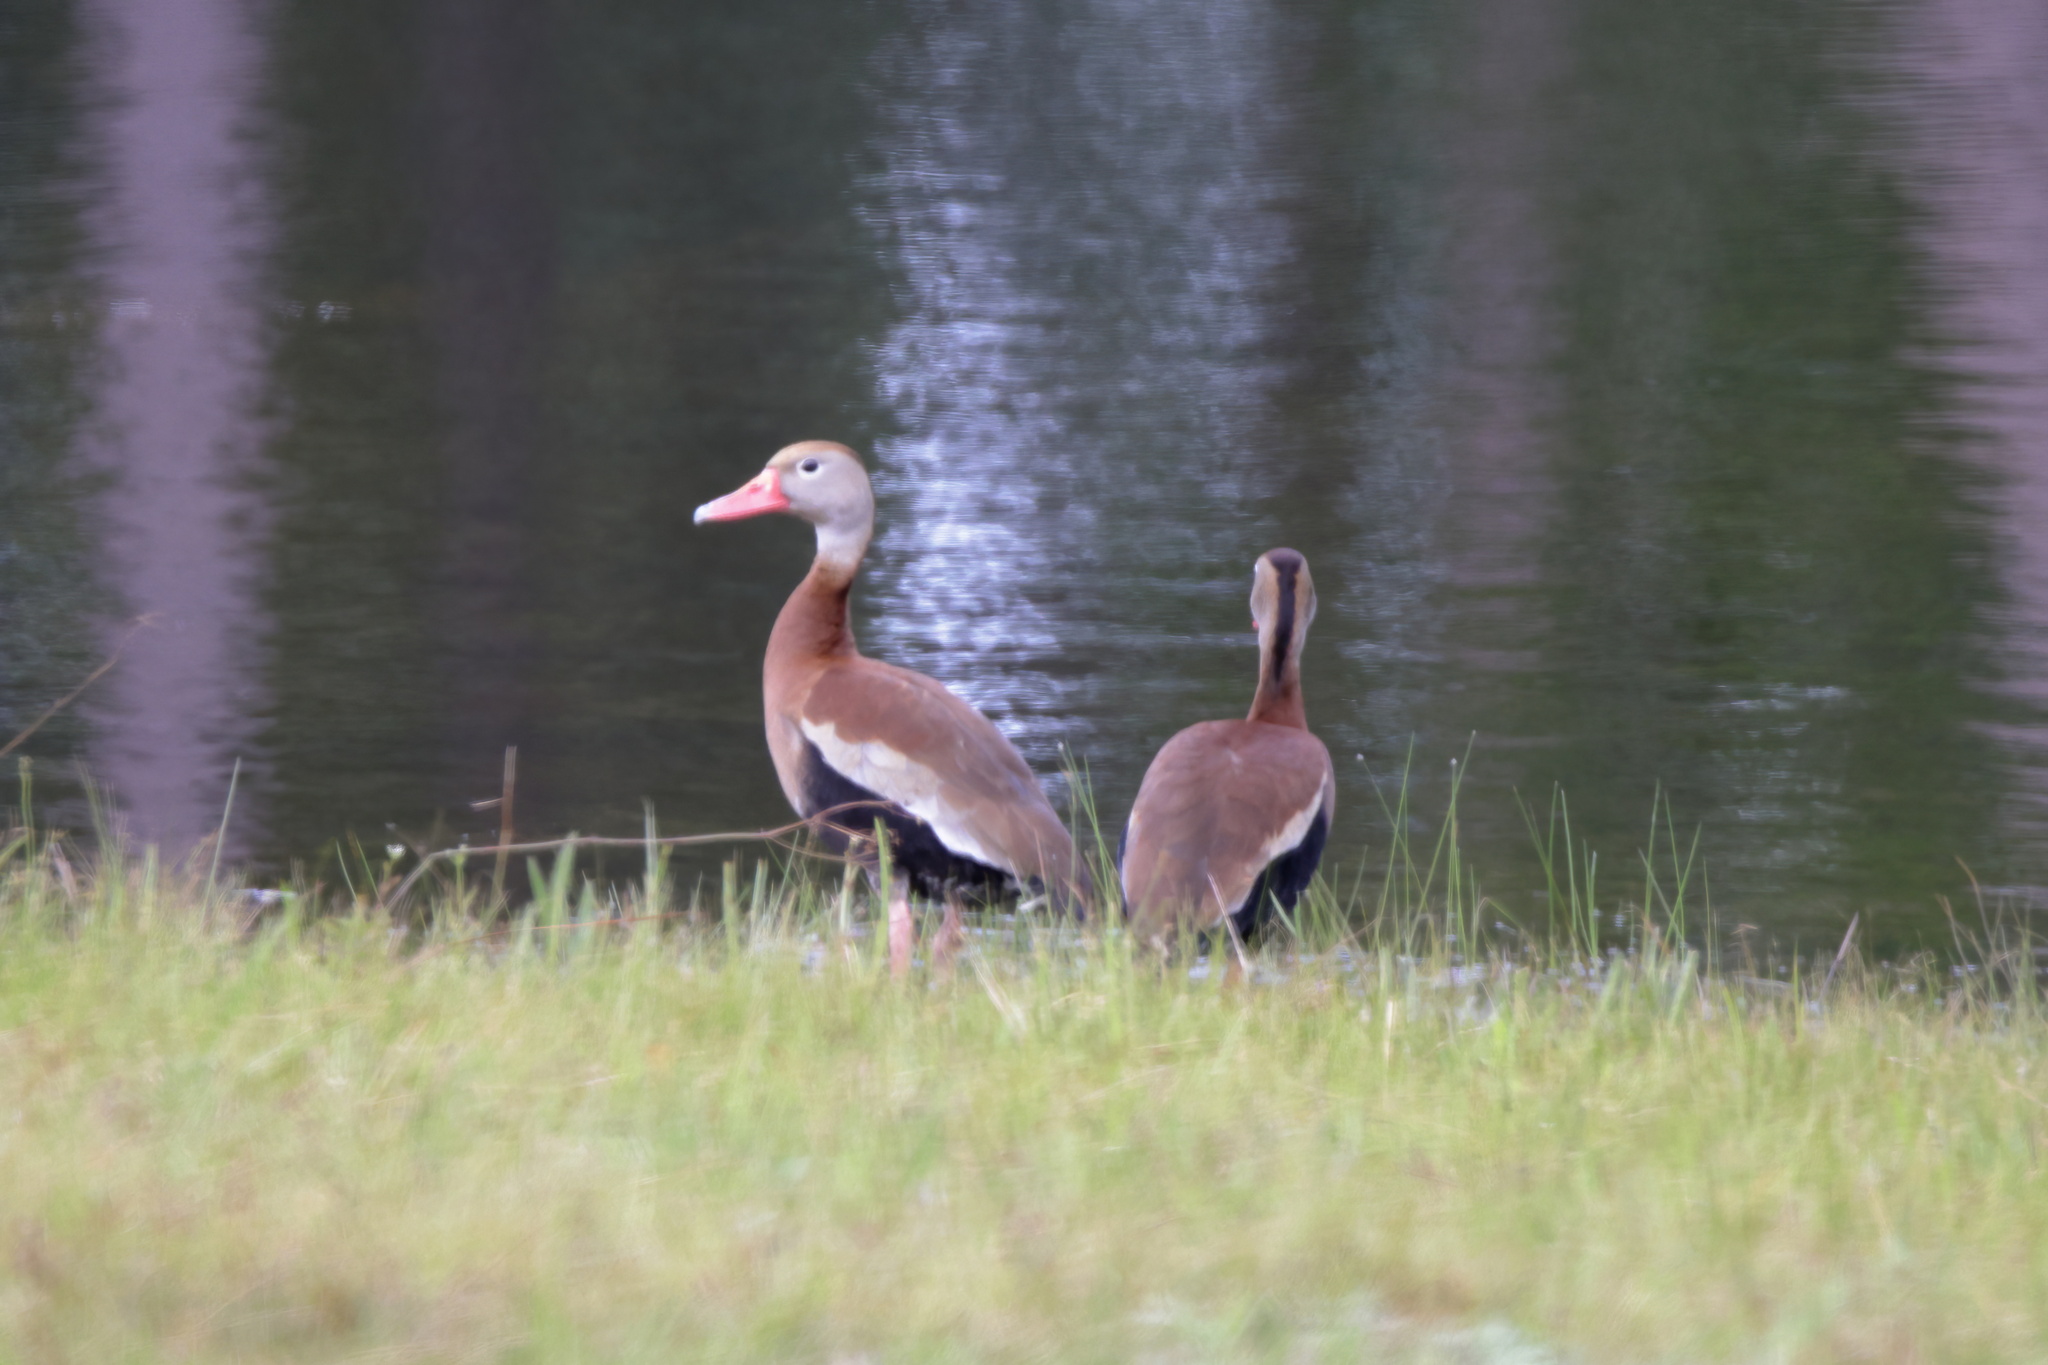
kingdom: Animalia
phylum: Chordata
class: Aves
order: Anseriformes
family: Anatidae
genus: Dendrocygna
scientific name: Dendrocygna autumnalis
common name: Black-bellied whistling duck
